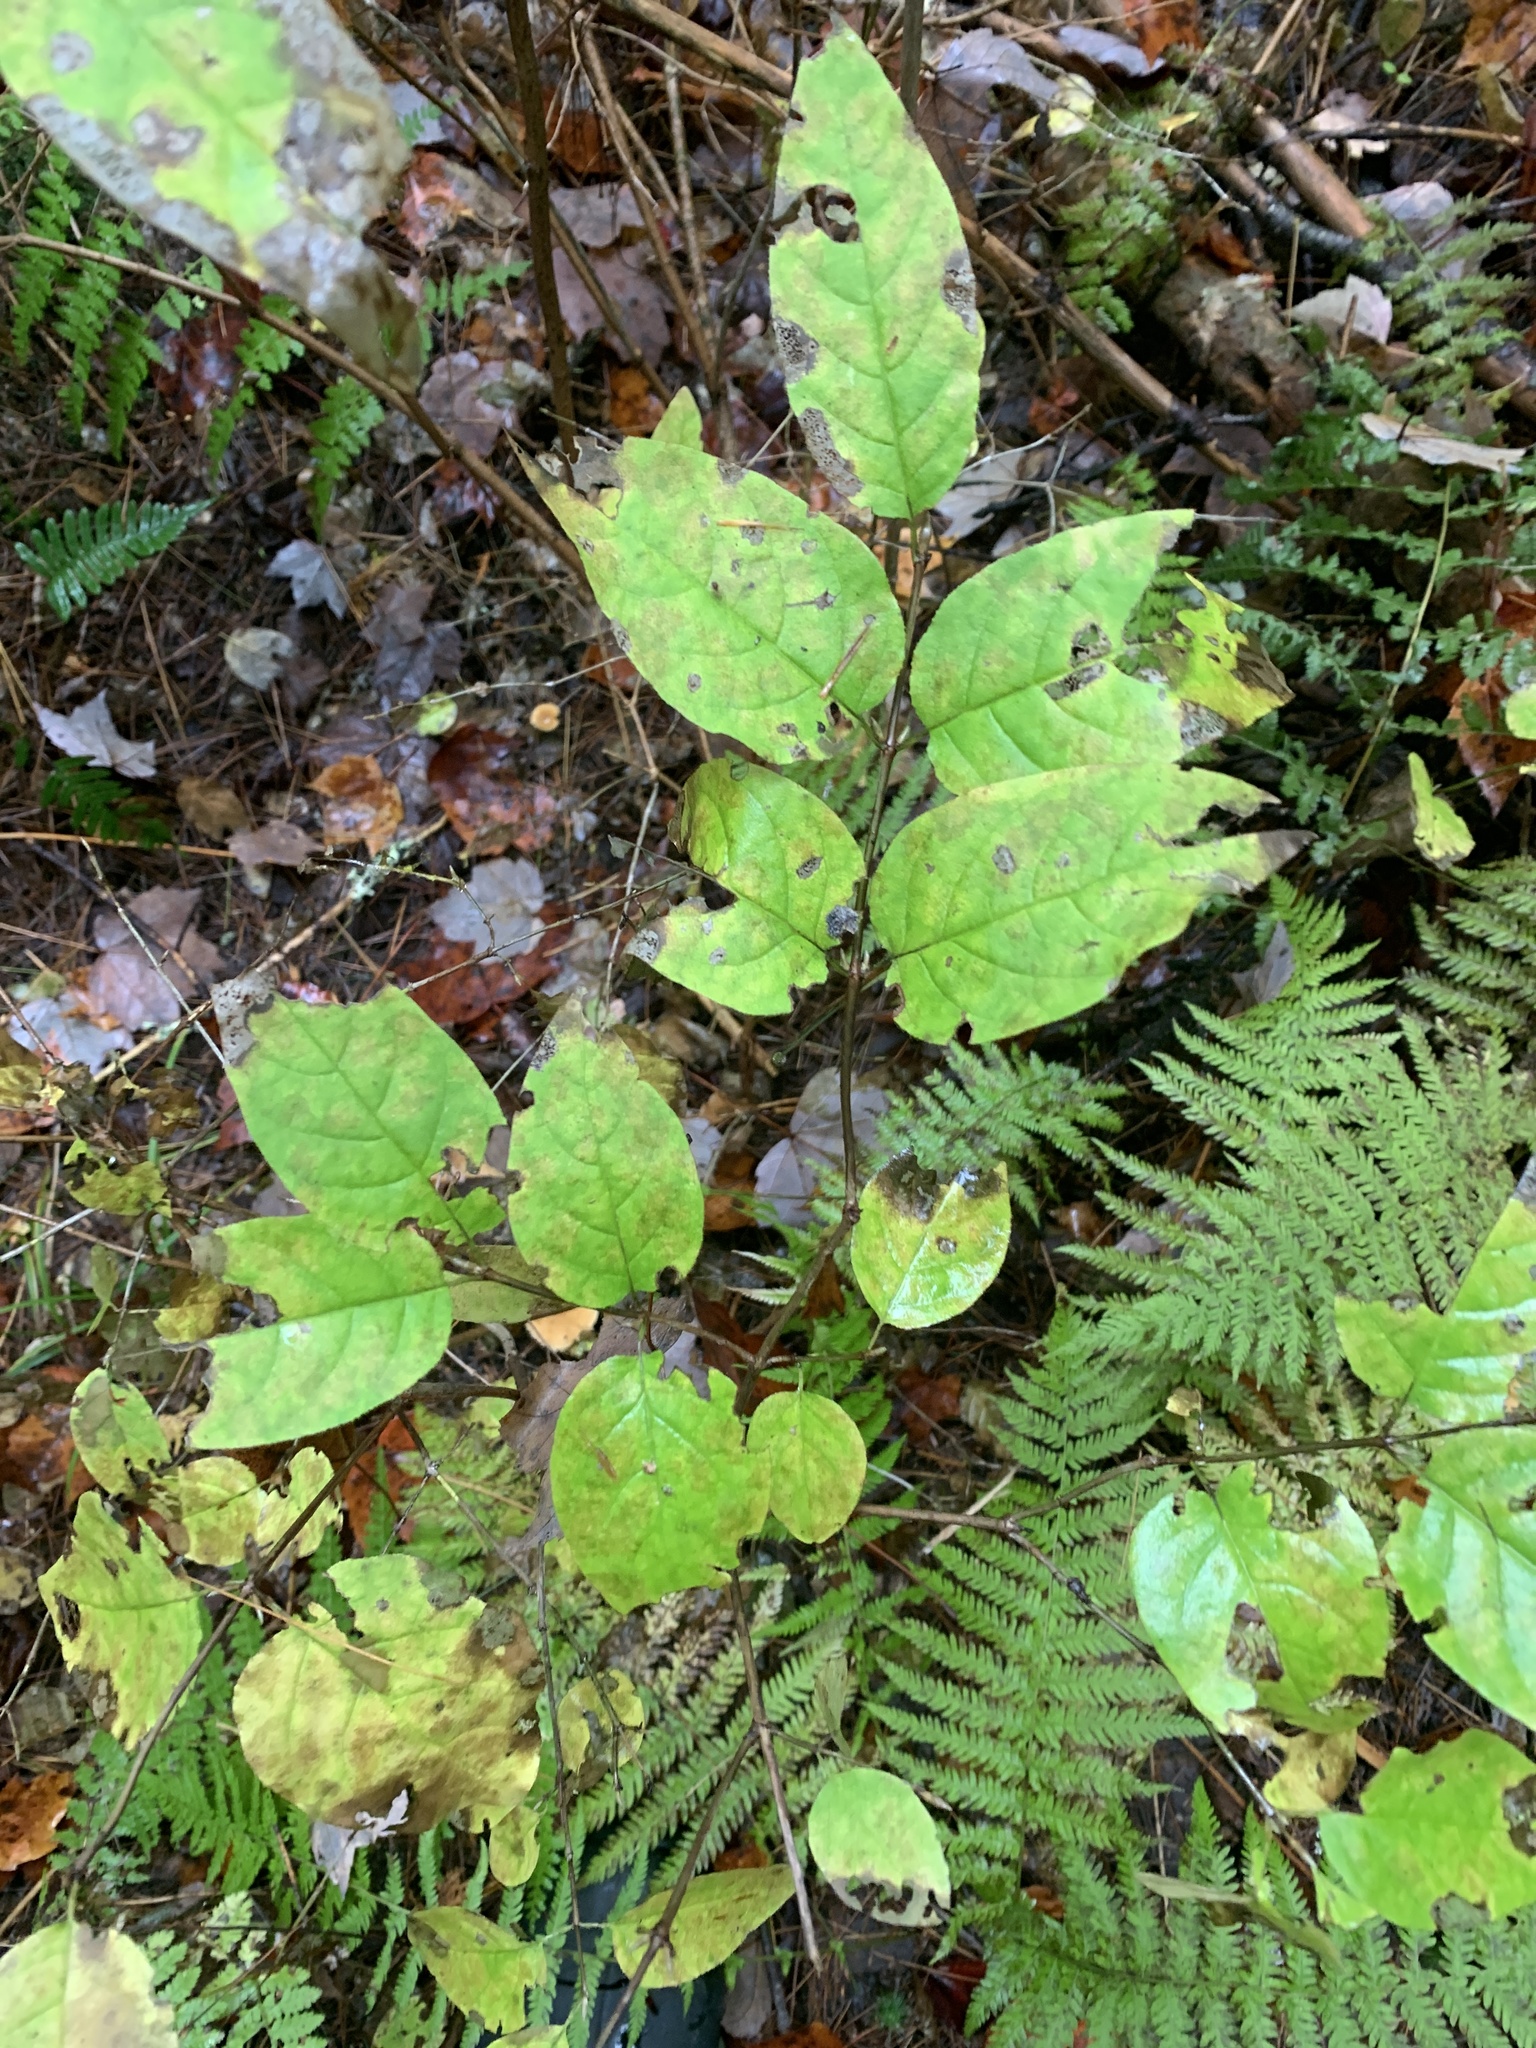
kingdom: Plantae
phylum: Tracheophyta
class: Magnoliopsida
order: Dipsacales
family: Caprifoliaceae
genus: Lonicera
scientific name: Lonicera canadensis
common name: American fly-honeysuckle
